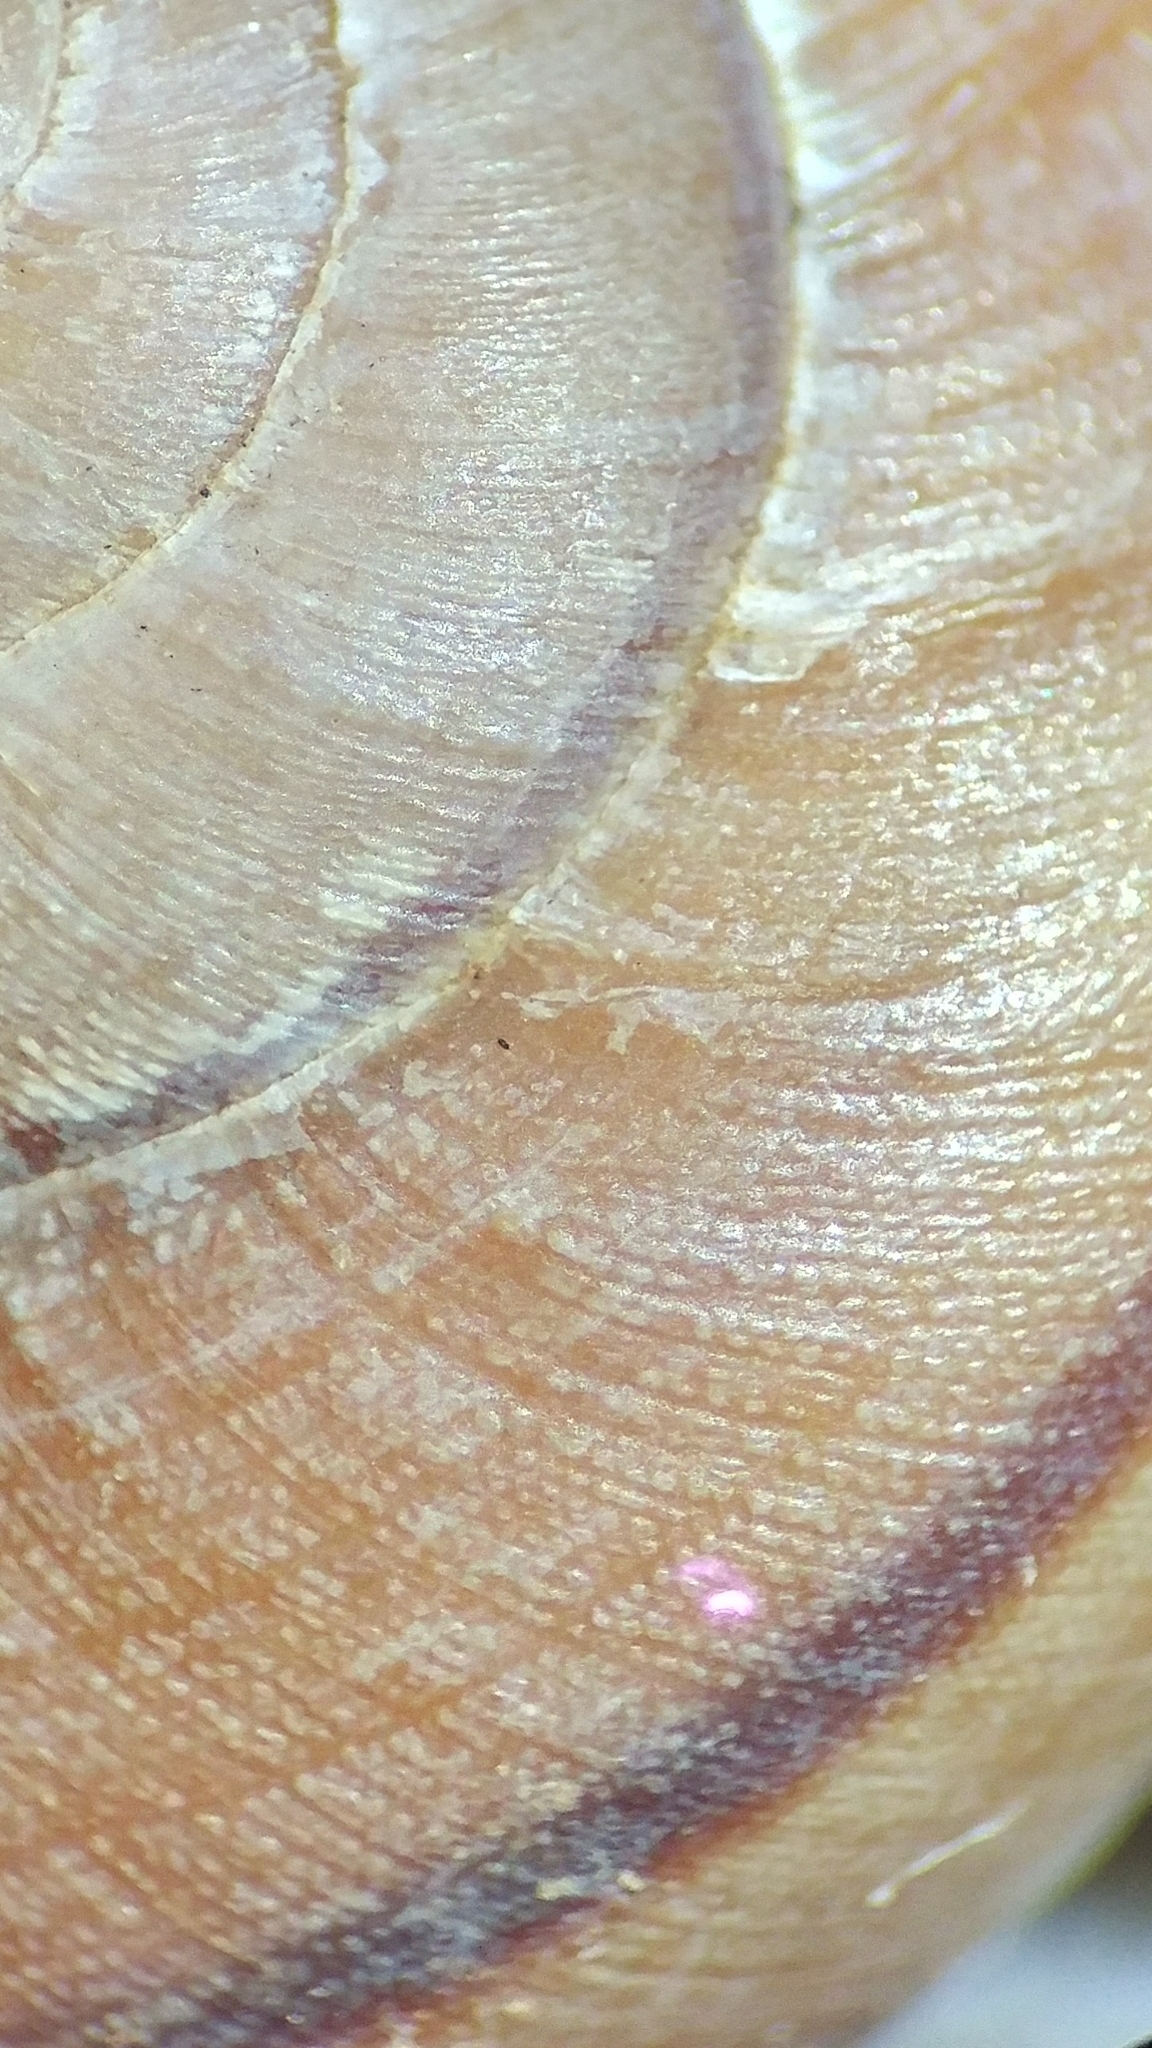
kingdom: Animalia
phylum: Mollusca
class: Gastropoda
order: Stylommatophora
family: Xanthonychidae
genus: Xerarionta
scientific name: Xerarionta redimita
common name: Wreathed cactus snail
